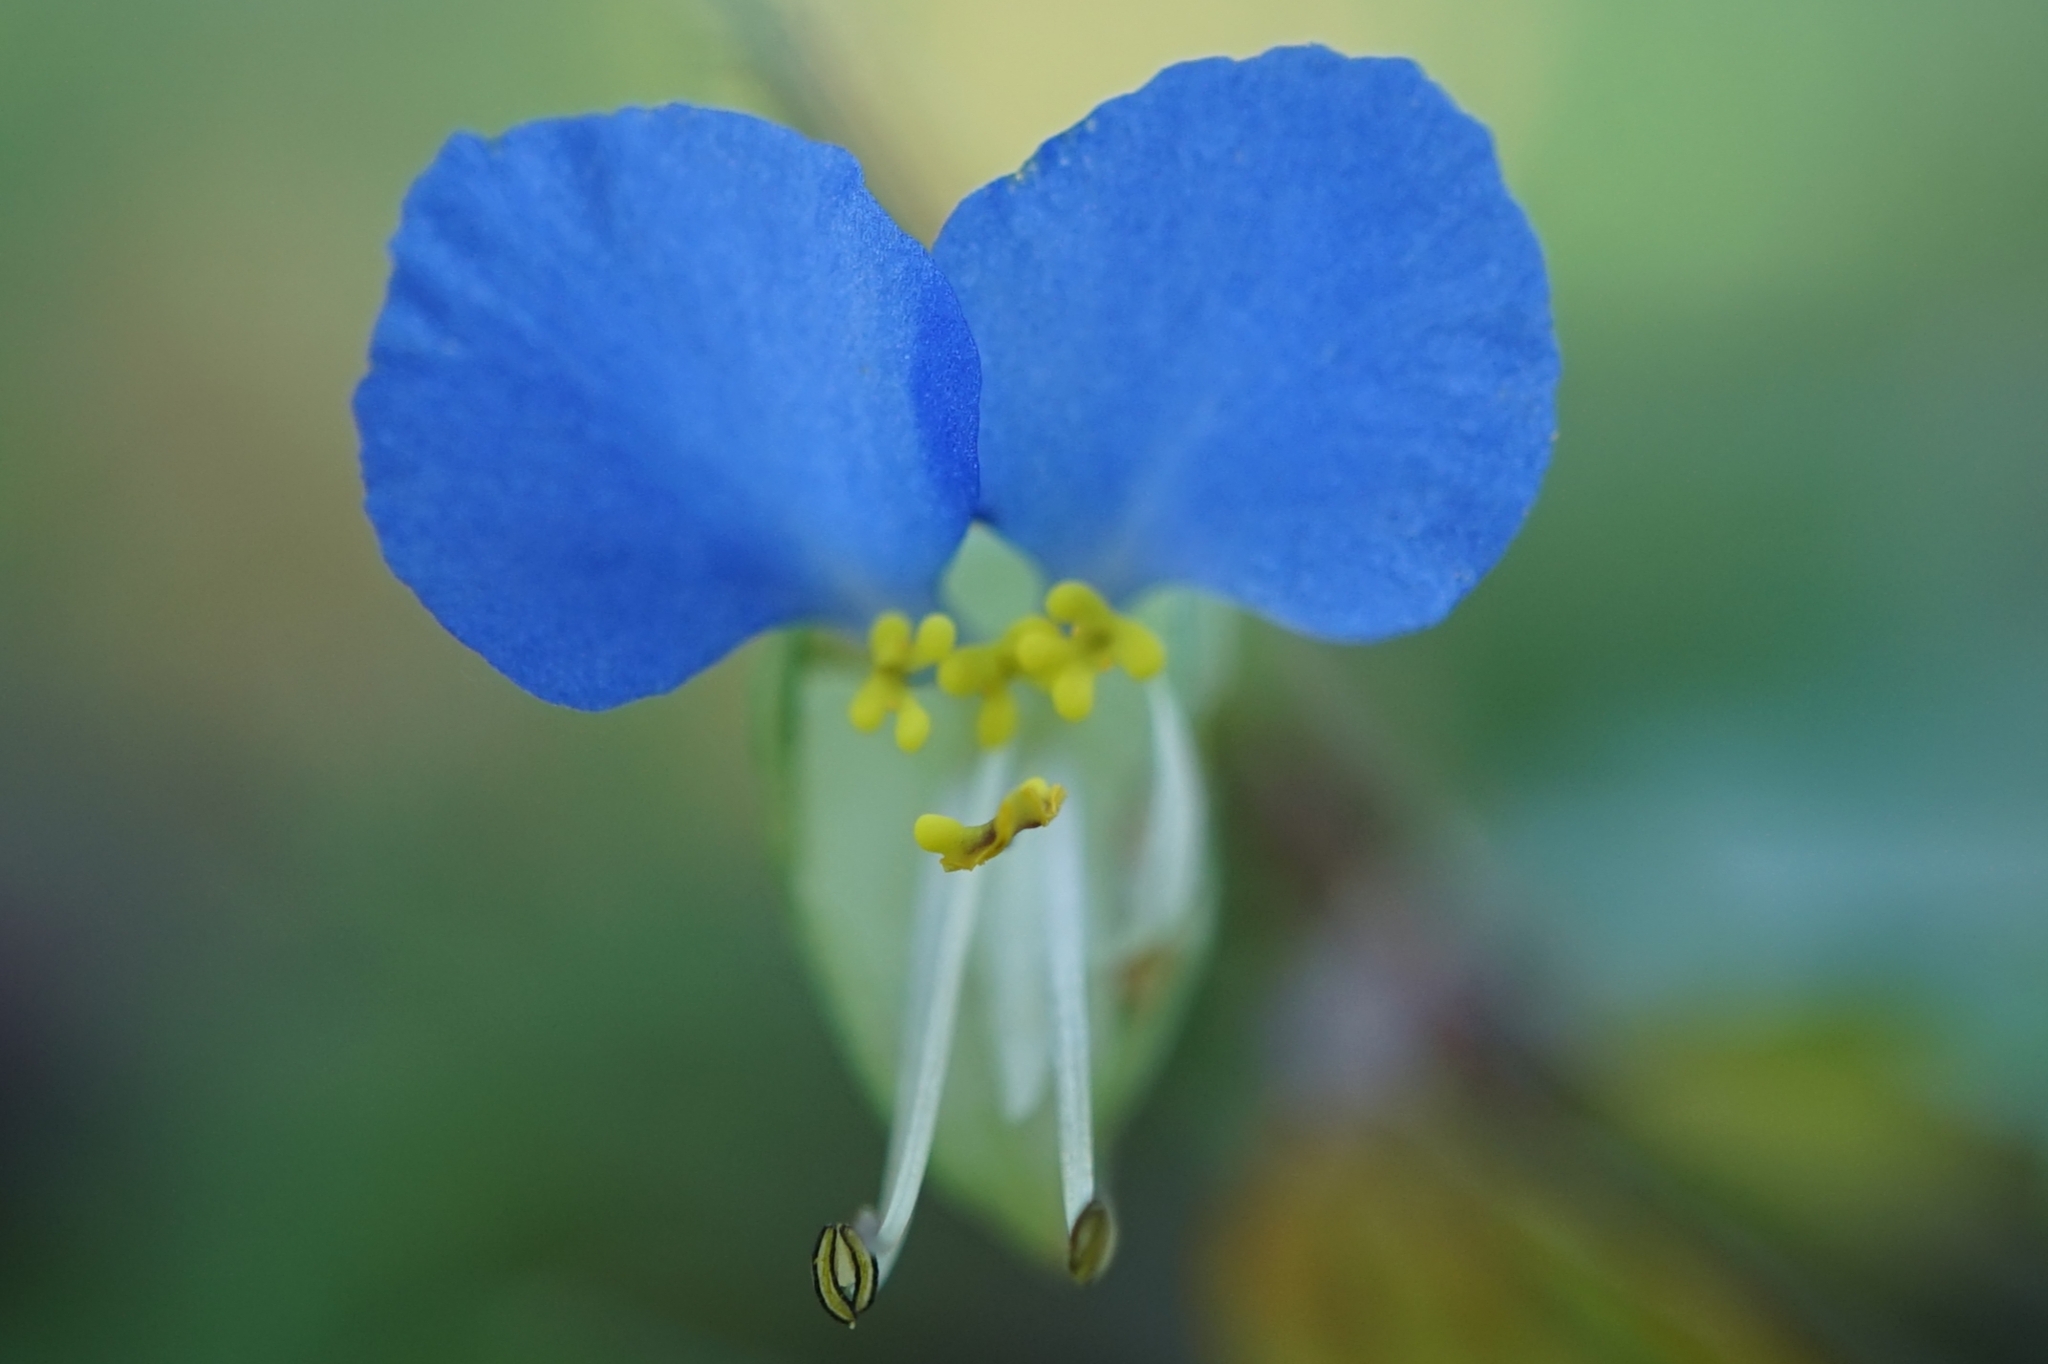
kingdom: Plantae
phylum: Tracheophyta
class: Liliopsida
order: Commelinales
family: Commelinaceae
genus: Commelina
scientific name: Commelina communis
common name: Asiatic dayflower
